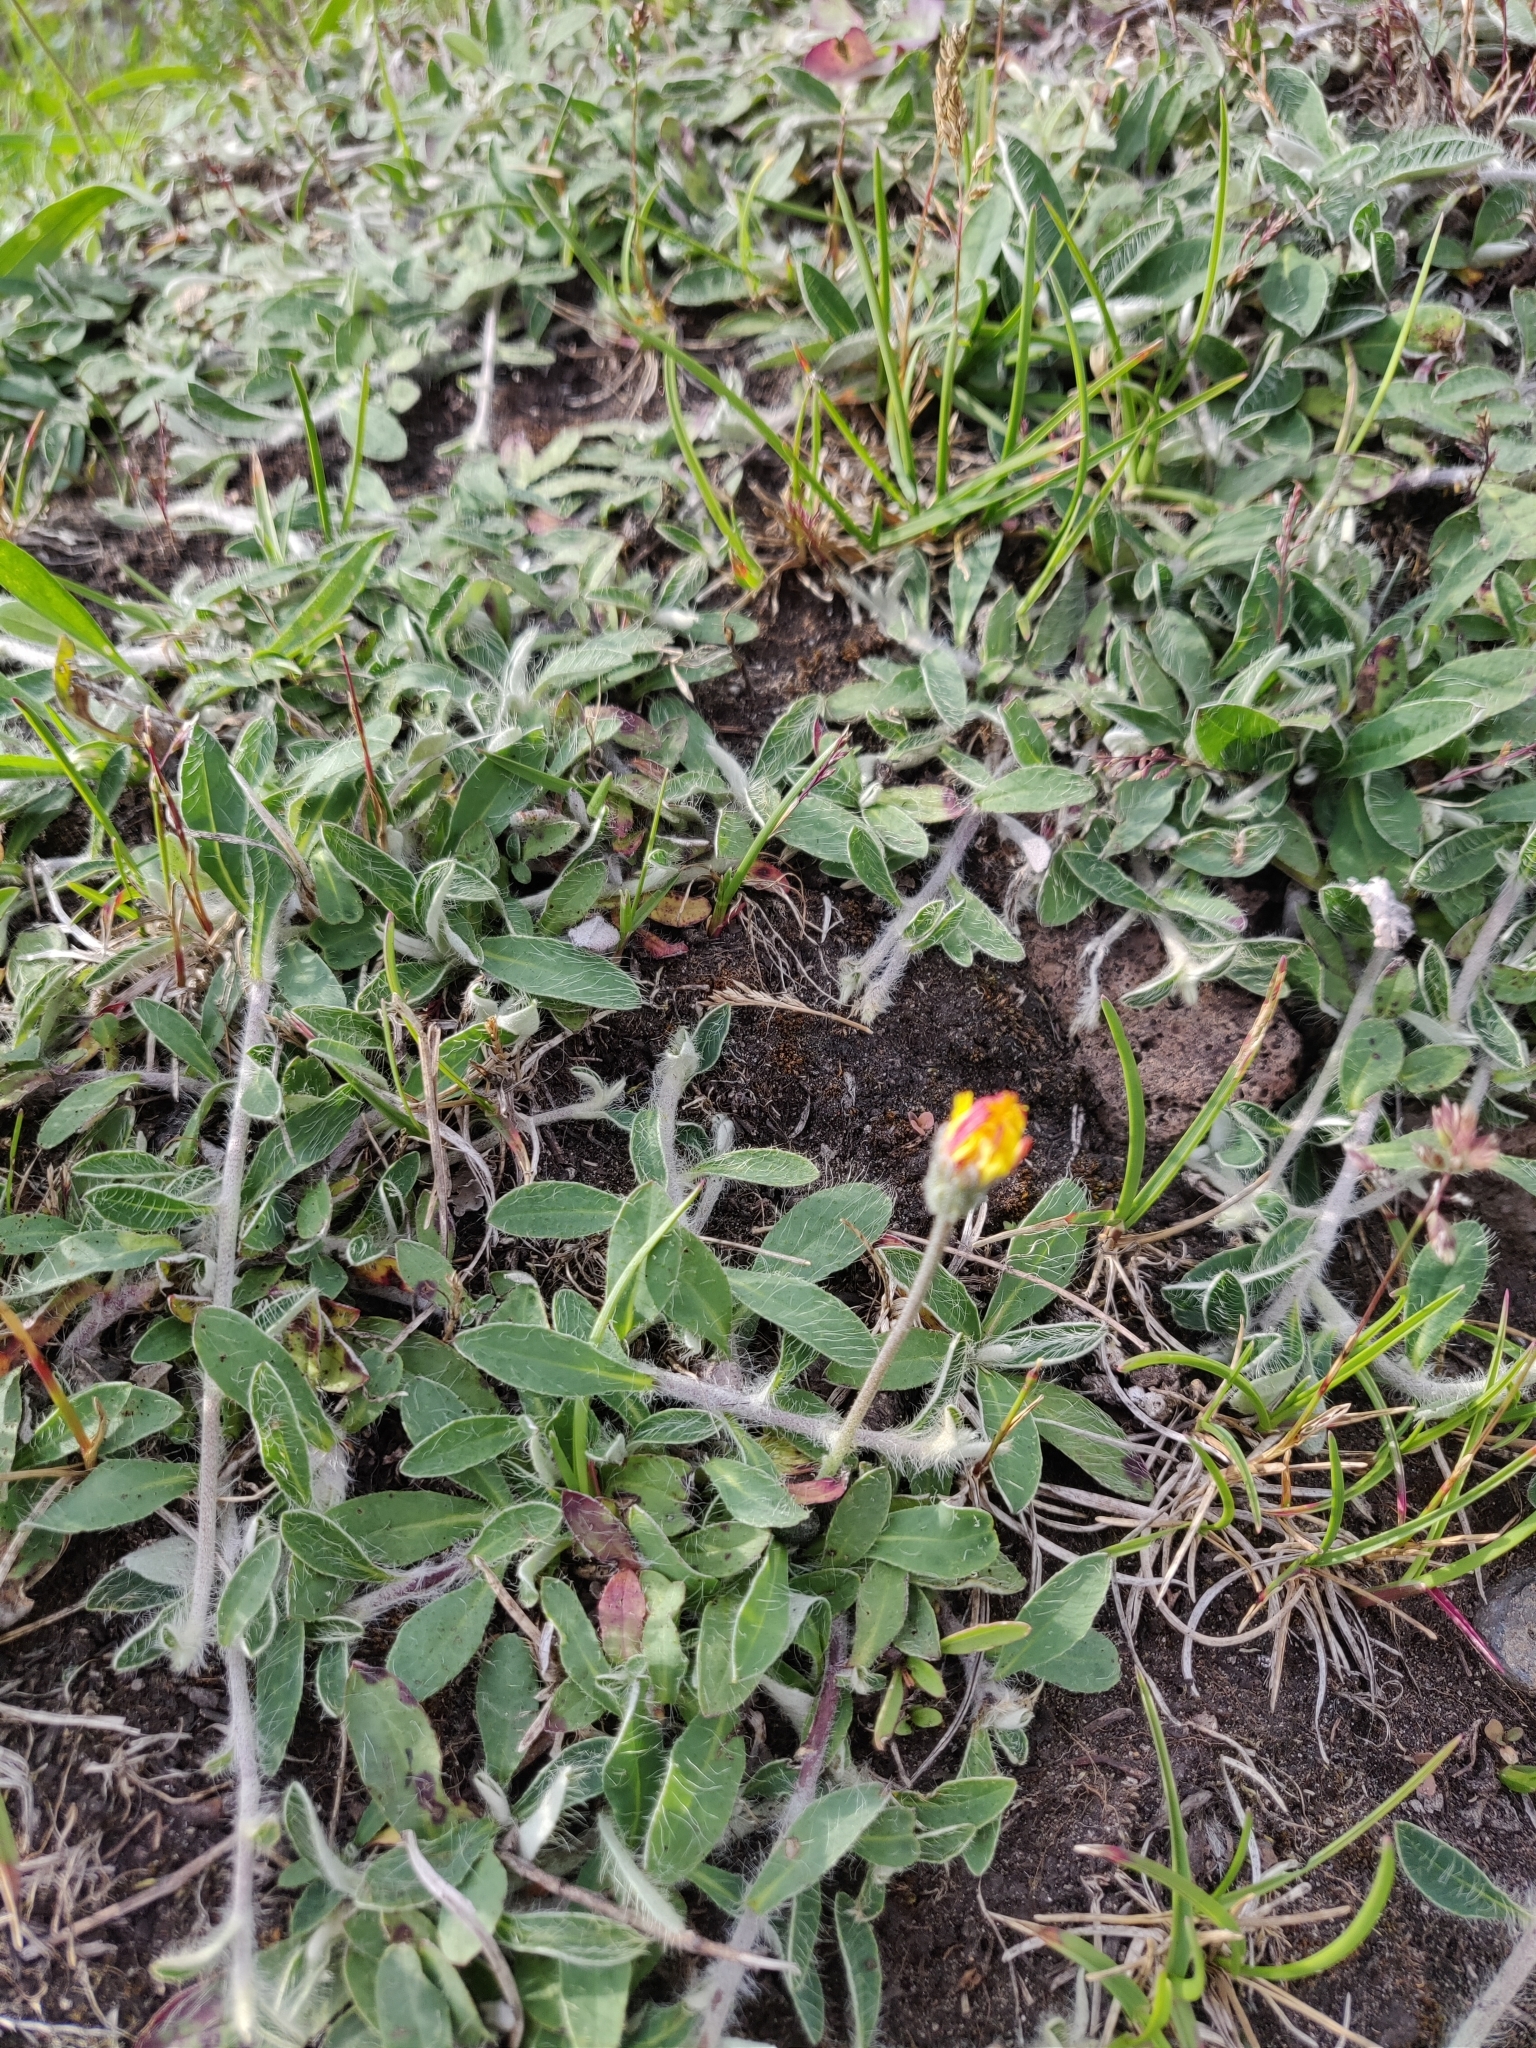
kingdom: Plantae
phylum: Tracheophyta
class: Magnoliopsida
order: Asterales
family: Asteraceae
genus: Pilosella
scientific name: Pilosella officinarum
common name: Mouse-ear hawkweed
